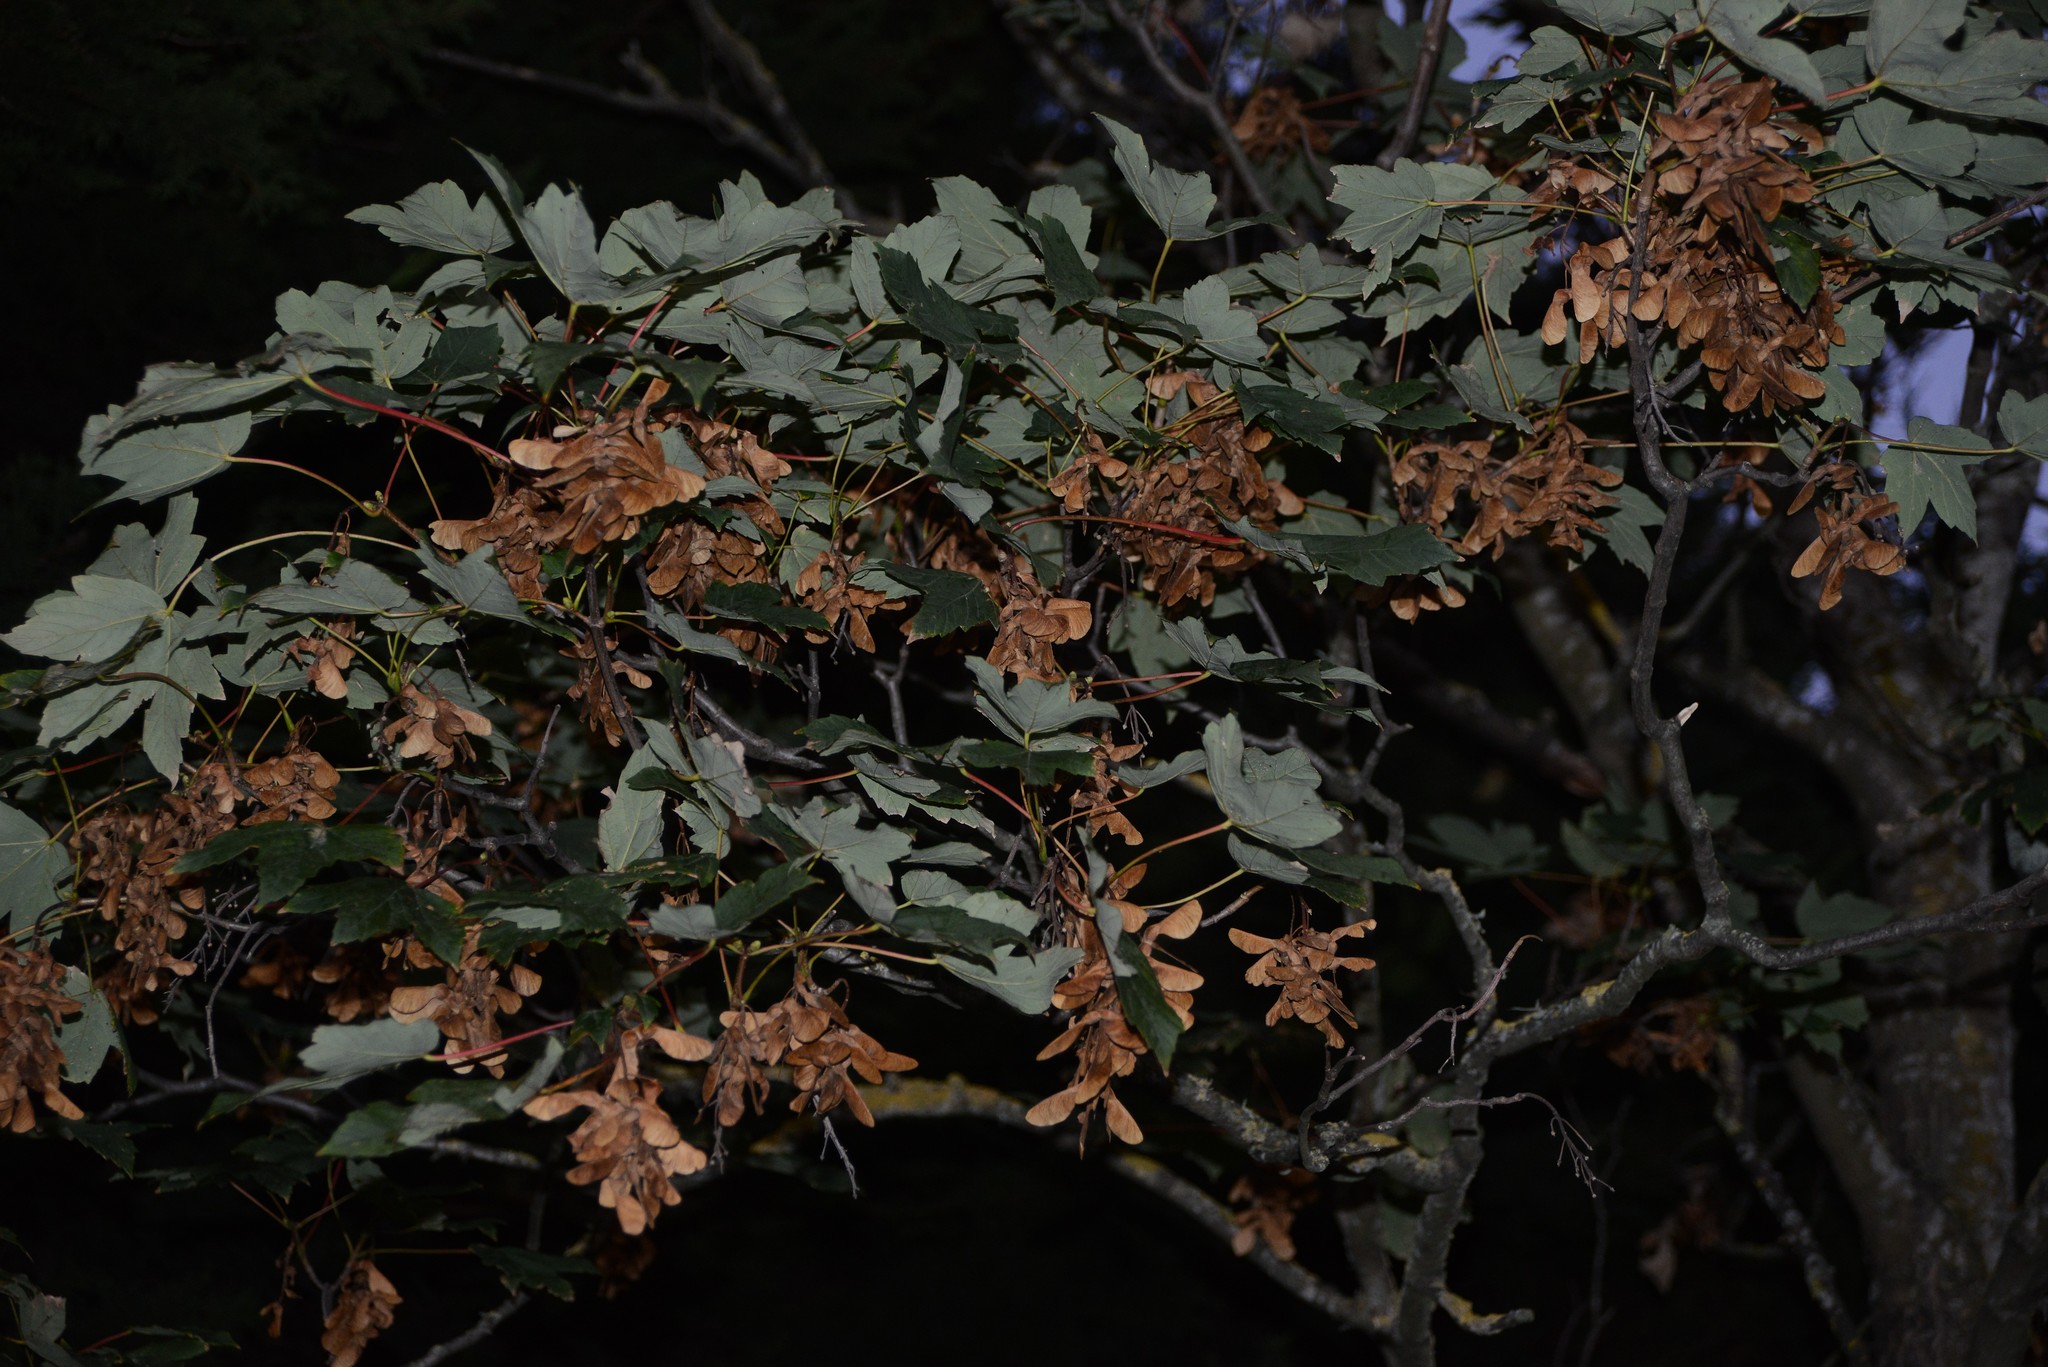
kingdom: Plantae
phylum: Tracheophyta
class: Magnoliopsida
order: Sapindales
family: Sapindaceae
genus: Acer
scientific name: Acer pseudoplatanus
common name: Sycamore
